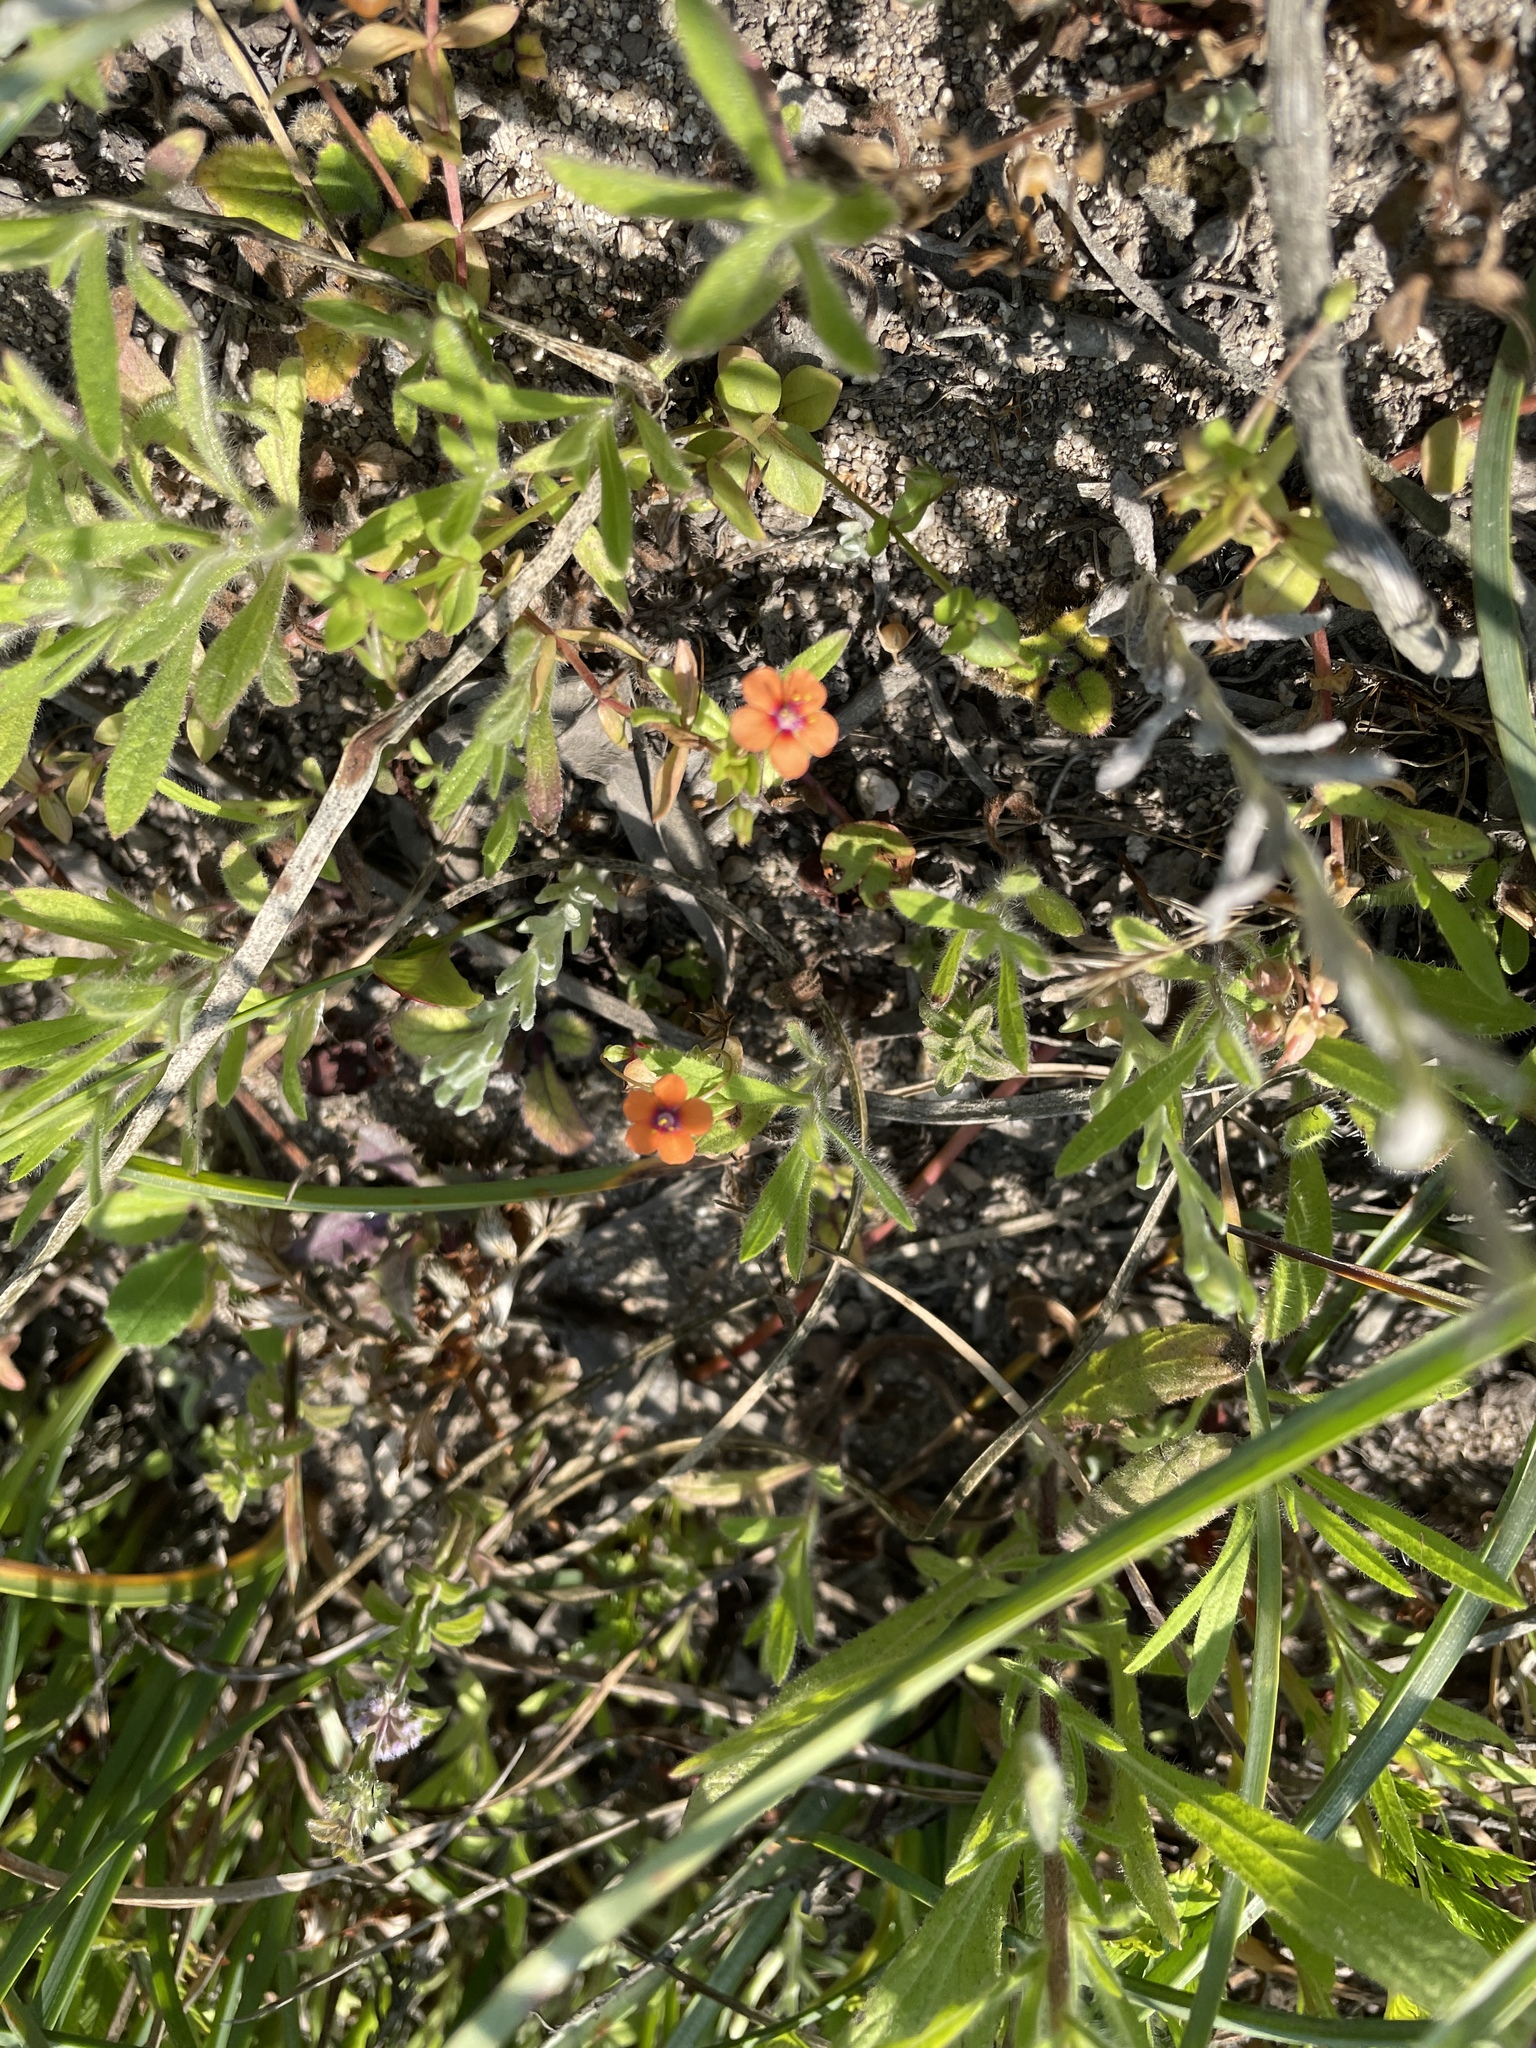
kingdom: Plantae
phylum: Tracheophyta
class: Magnoliopsida
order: Ericales
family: Primulaceae
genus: Lysimachia
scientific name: Lysimachia arvensis
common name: Scarlet pimpernel
